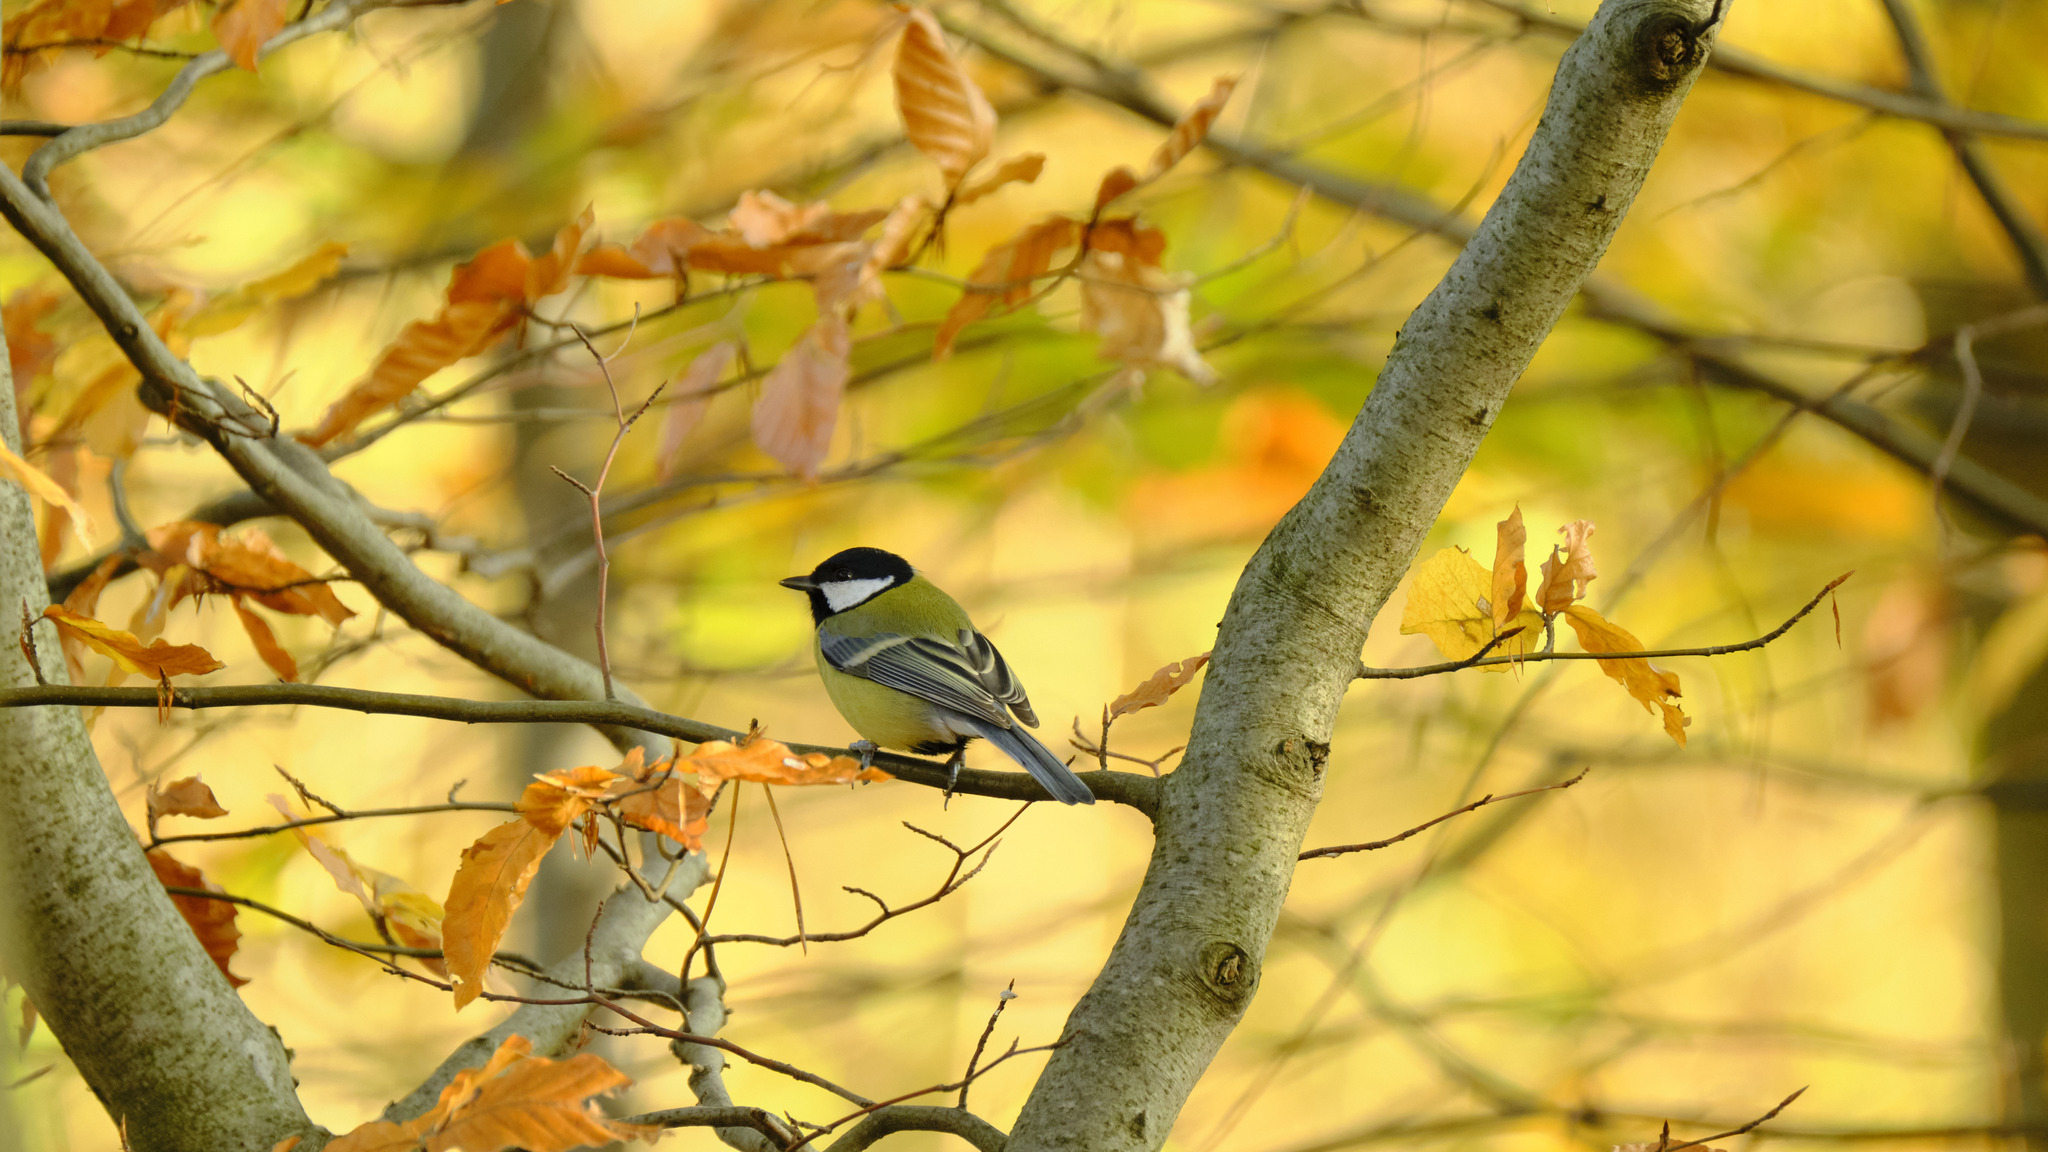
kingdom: Animalia
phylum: Chordata
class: Aves
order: Passeriformes
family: Paridae
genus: Parus
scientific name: Parus major
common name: Great tit
